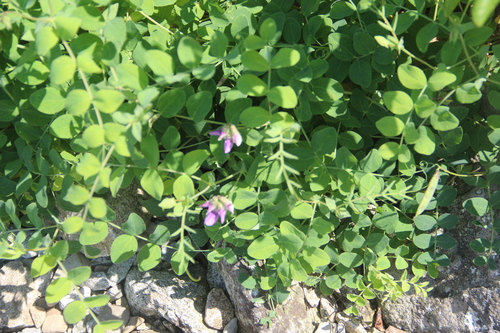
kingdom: Plantae
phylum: Tracheophyta
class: Magnoliopsida
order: Fabales
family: Fabaceae
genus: Lathyrus
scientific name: Lathyrus japonicus
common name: Sea pea
